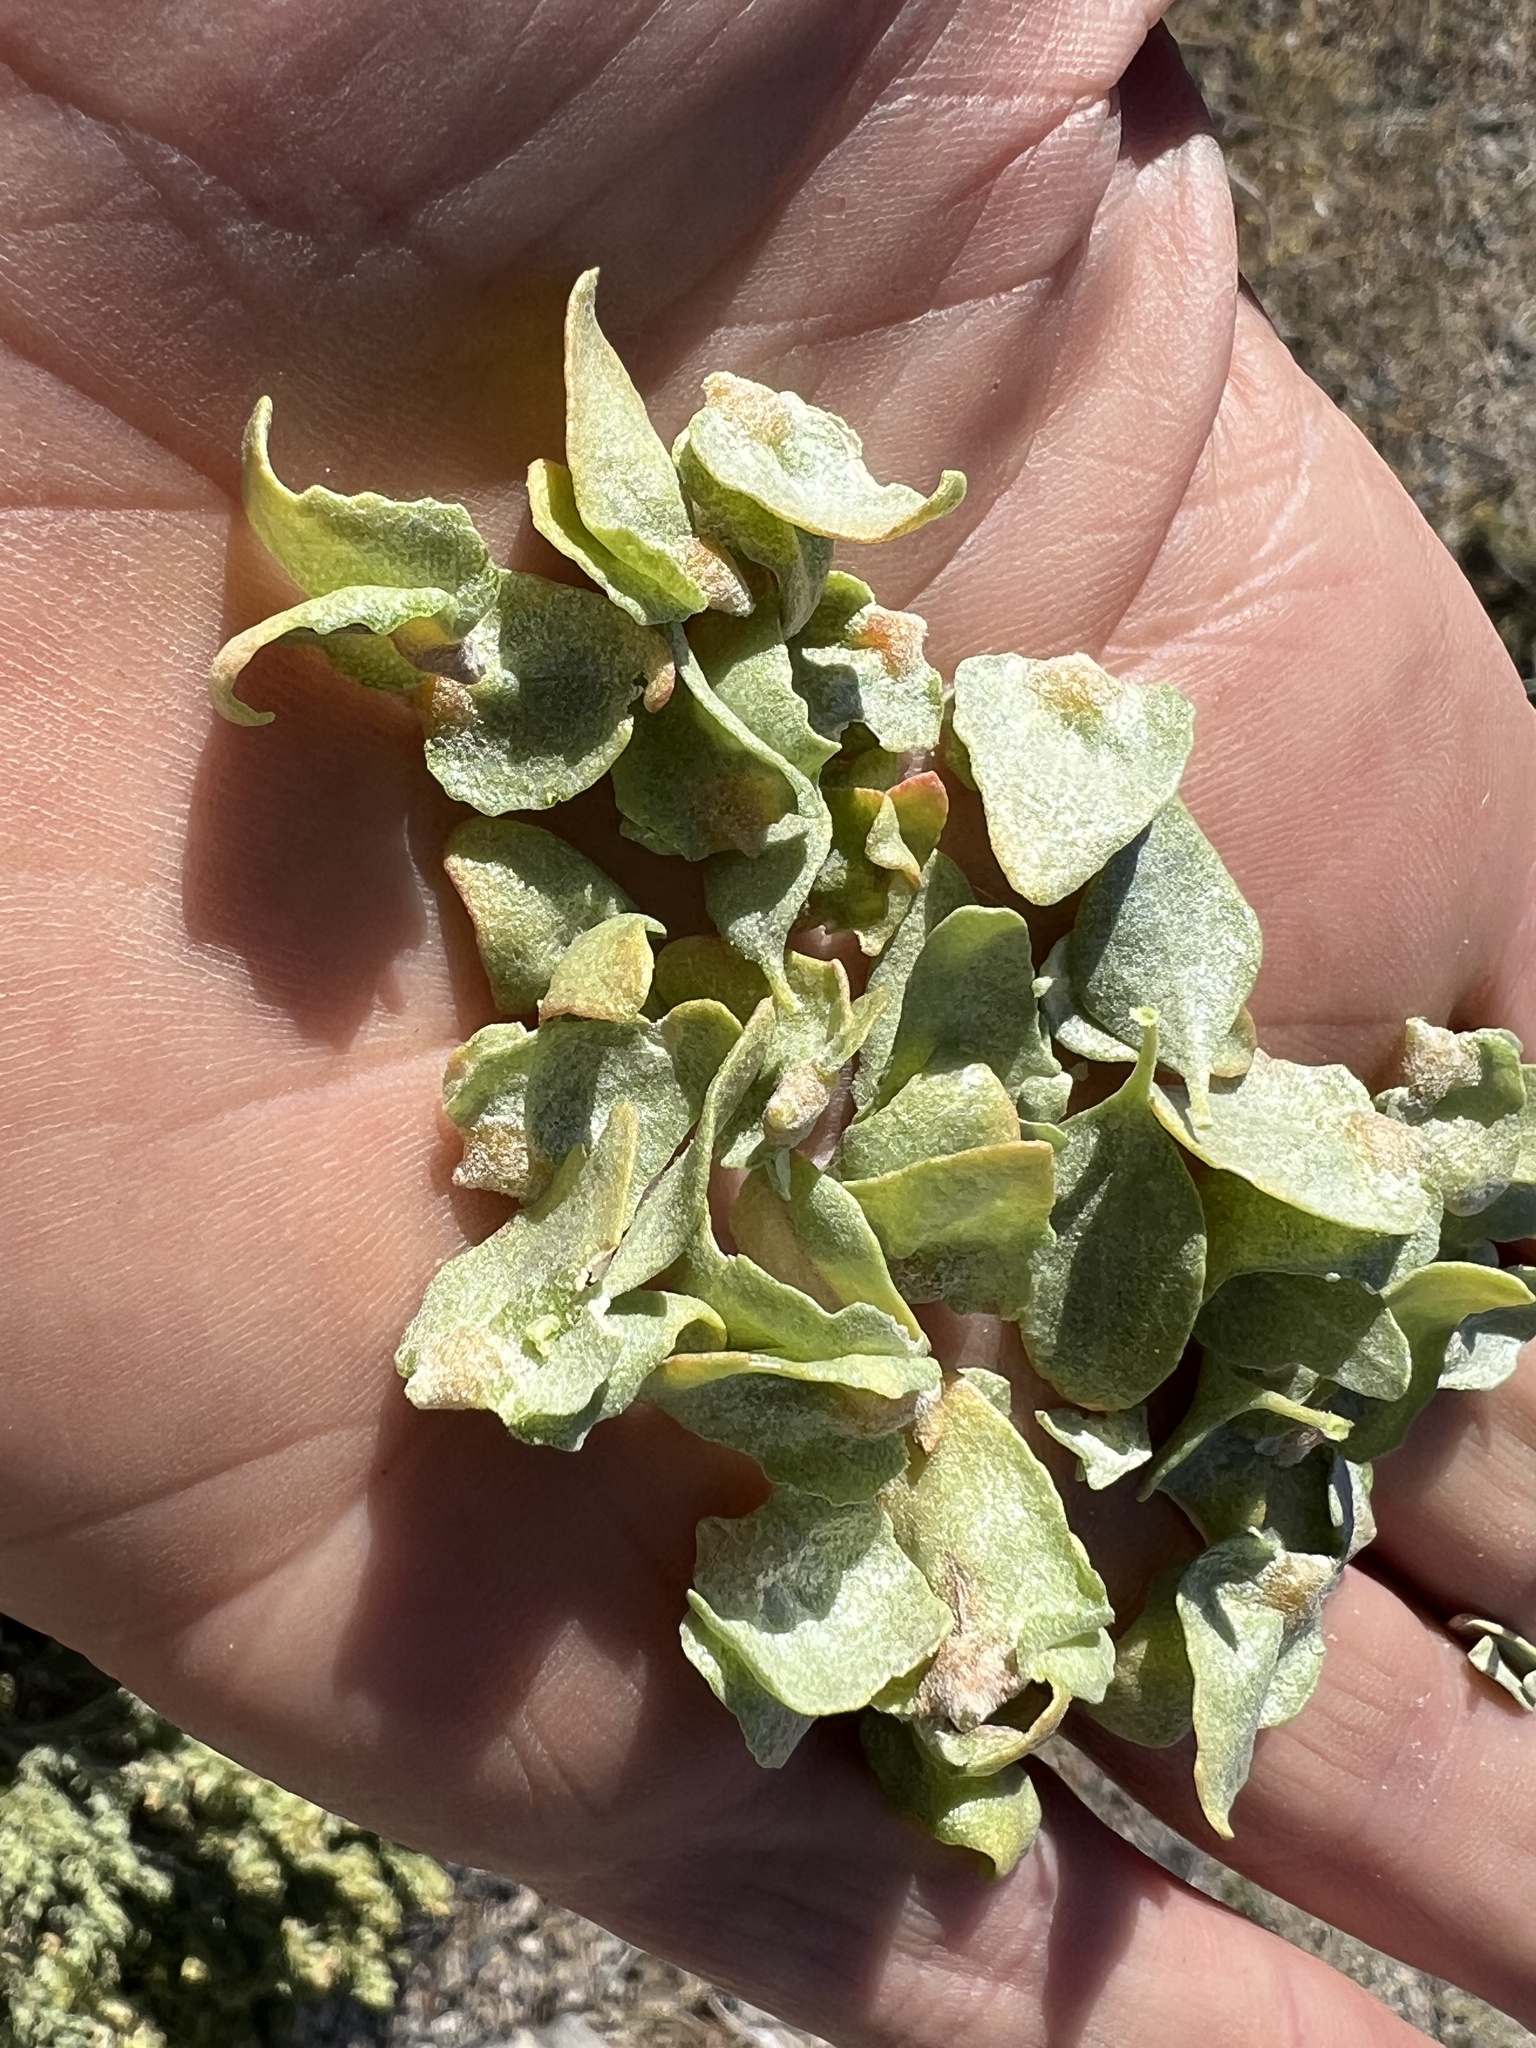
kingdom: Plantae
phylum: Tracheophyta
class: Magnoliopsida
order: Caryophyllales
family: Amaranthaceae
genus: Atriplex
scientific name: Atriplex confertifolia
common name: Shadscale
